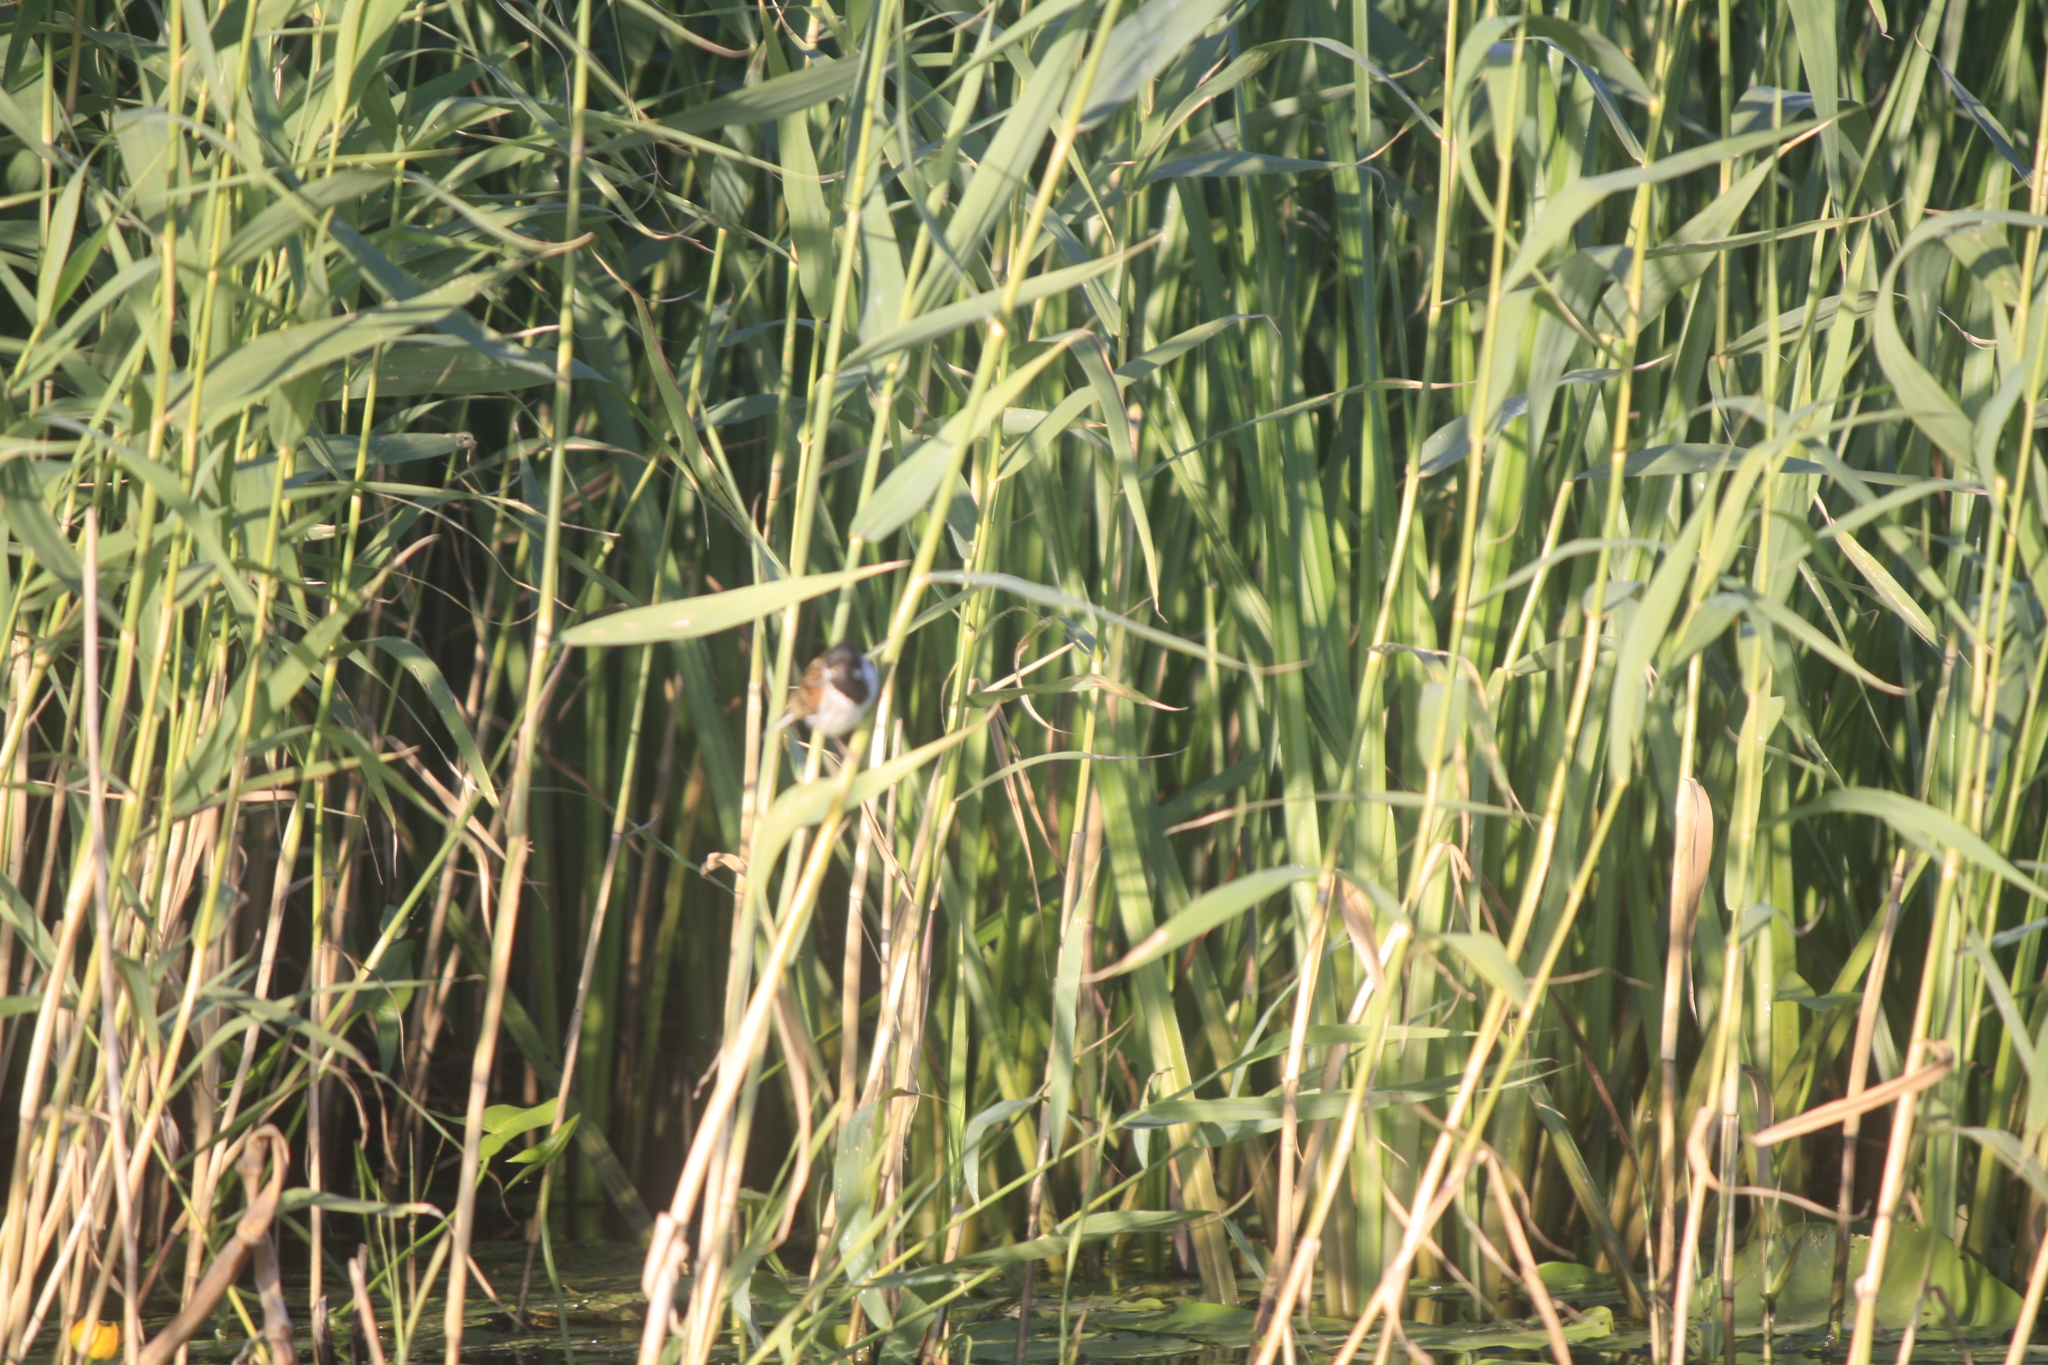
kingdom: Animalia
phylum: Chordata
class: Aves
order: Passeriformes
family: Emberizidae
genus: Emberiza
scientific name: Emberiza schoeniclus
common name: Reed bunting
